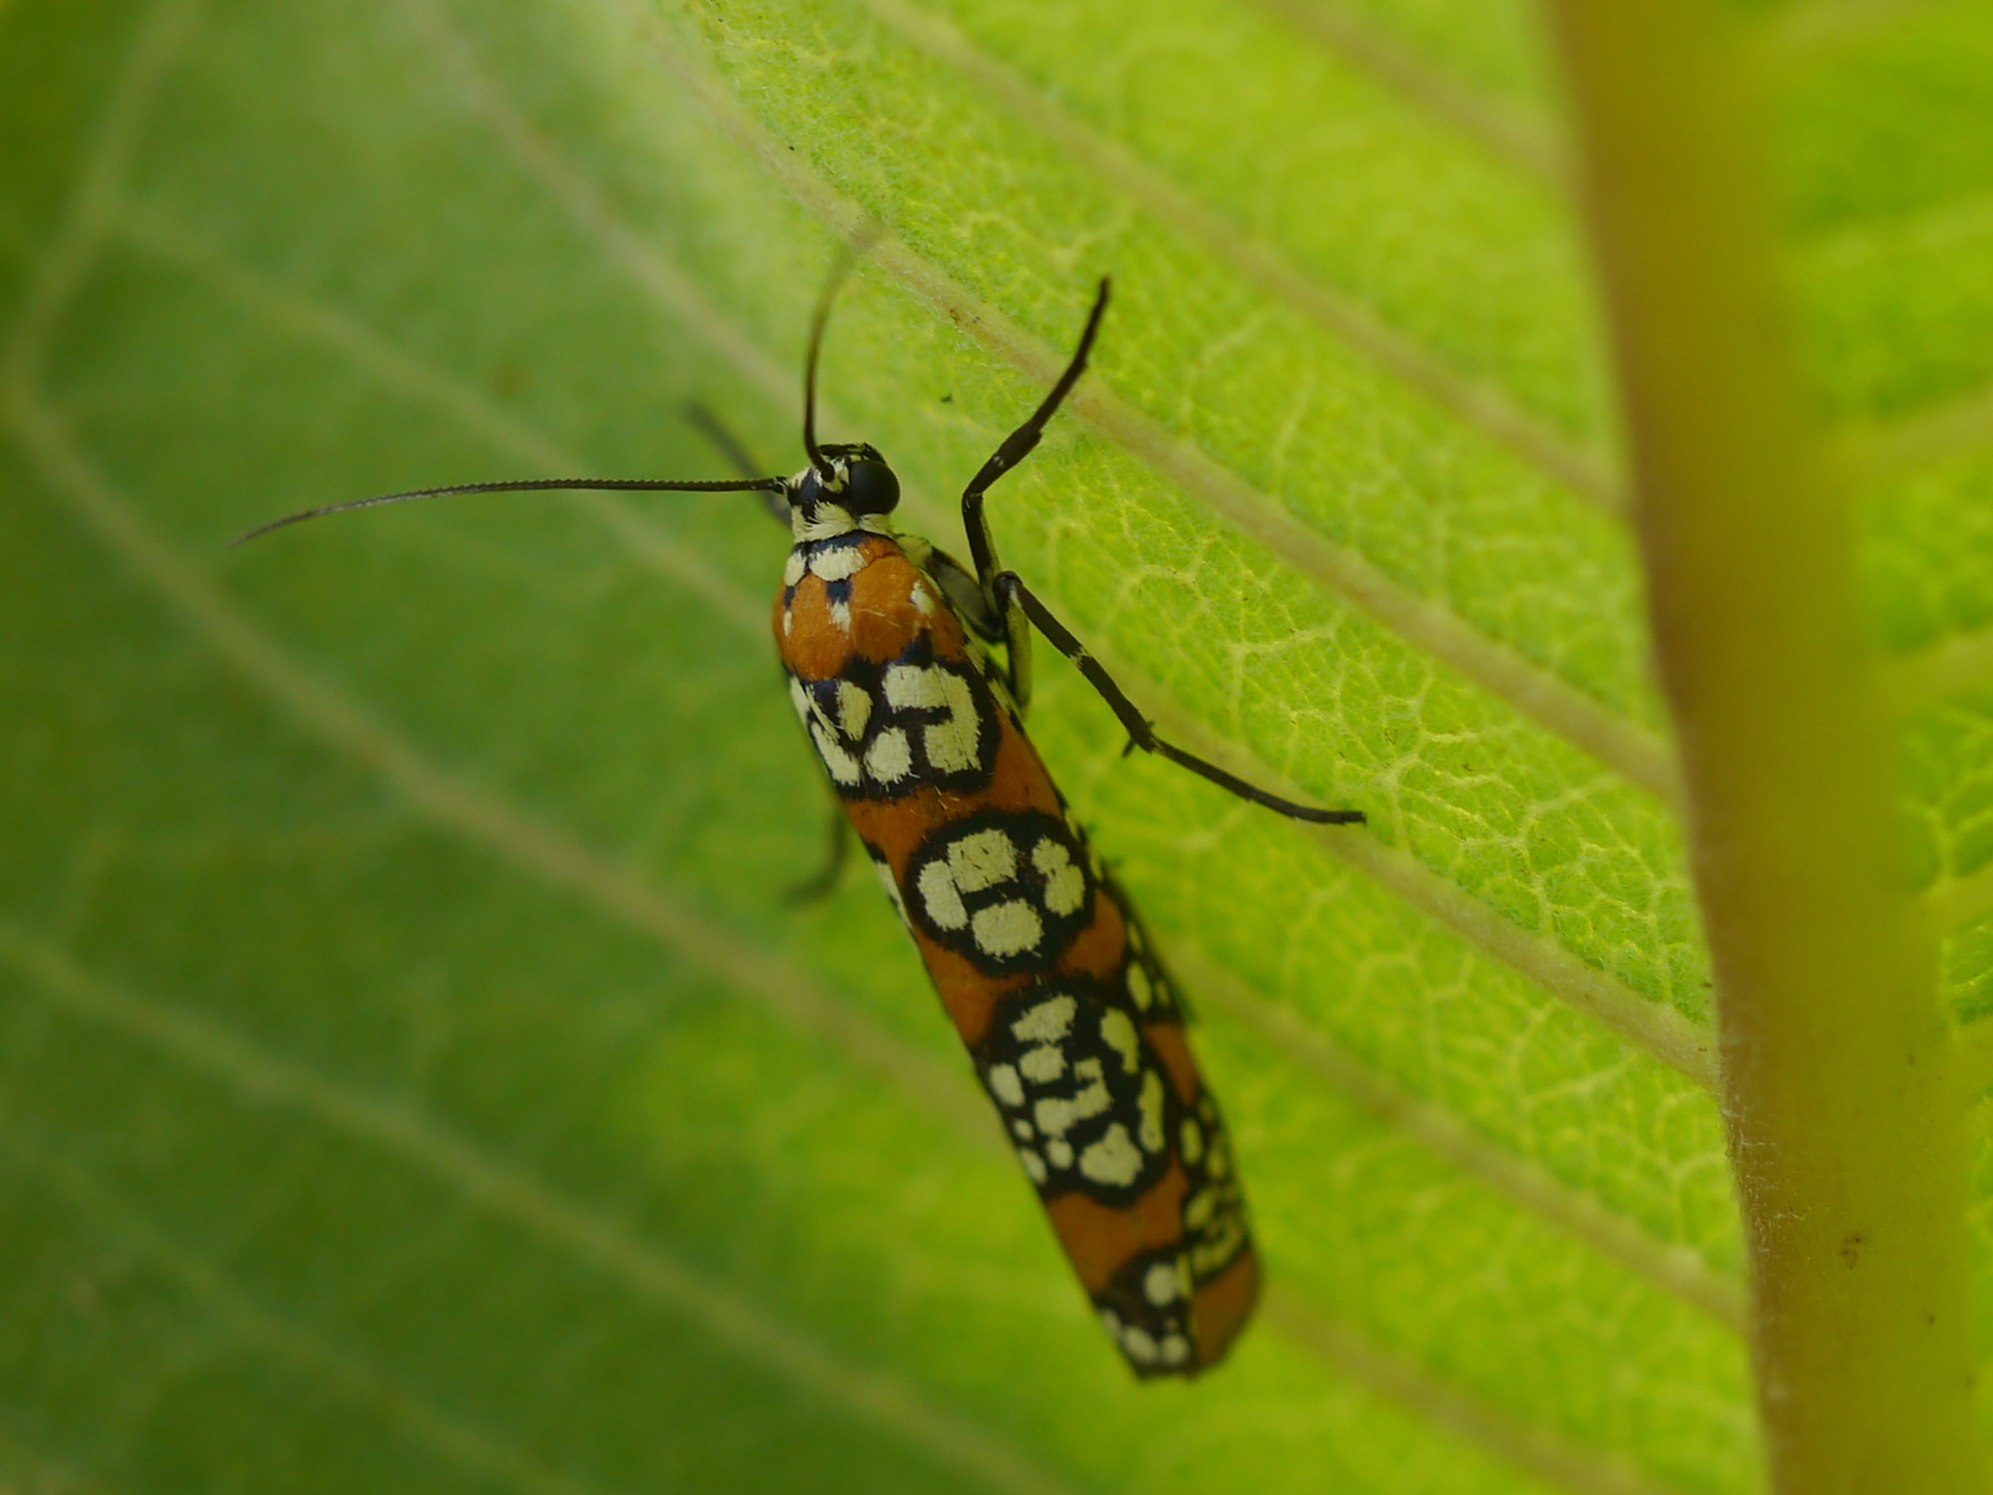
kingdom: Animalia
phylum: Arthropoda
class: Insecta
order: Lepidoptera
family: Attevidae
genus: Atteva
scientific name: Atteva punctella
